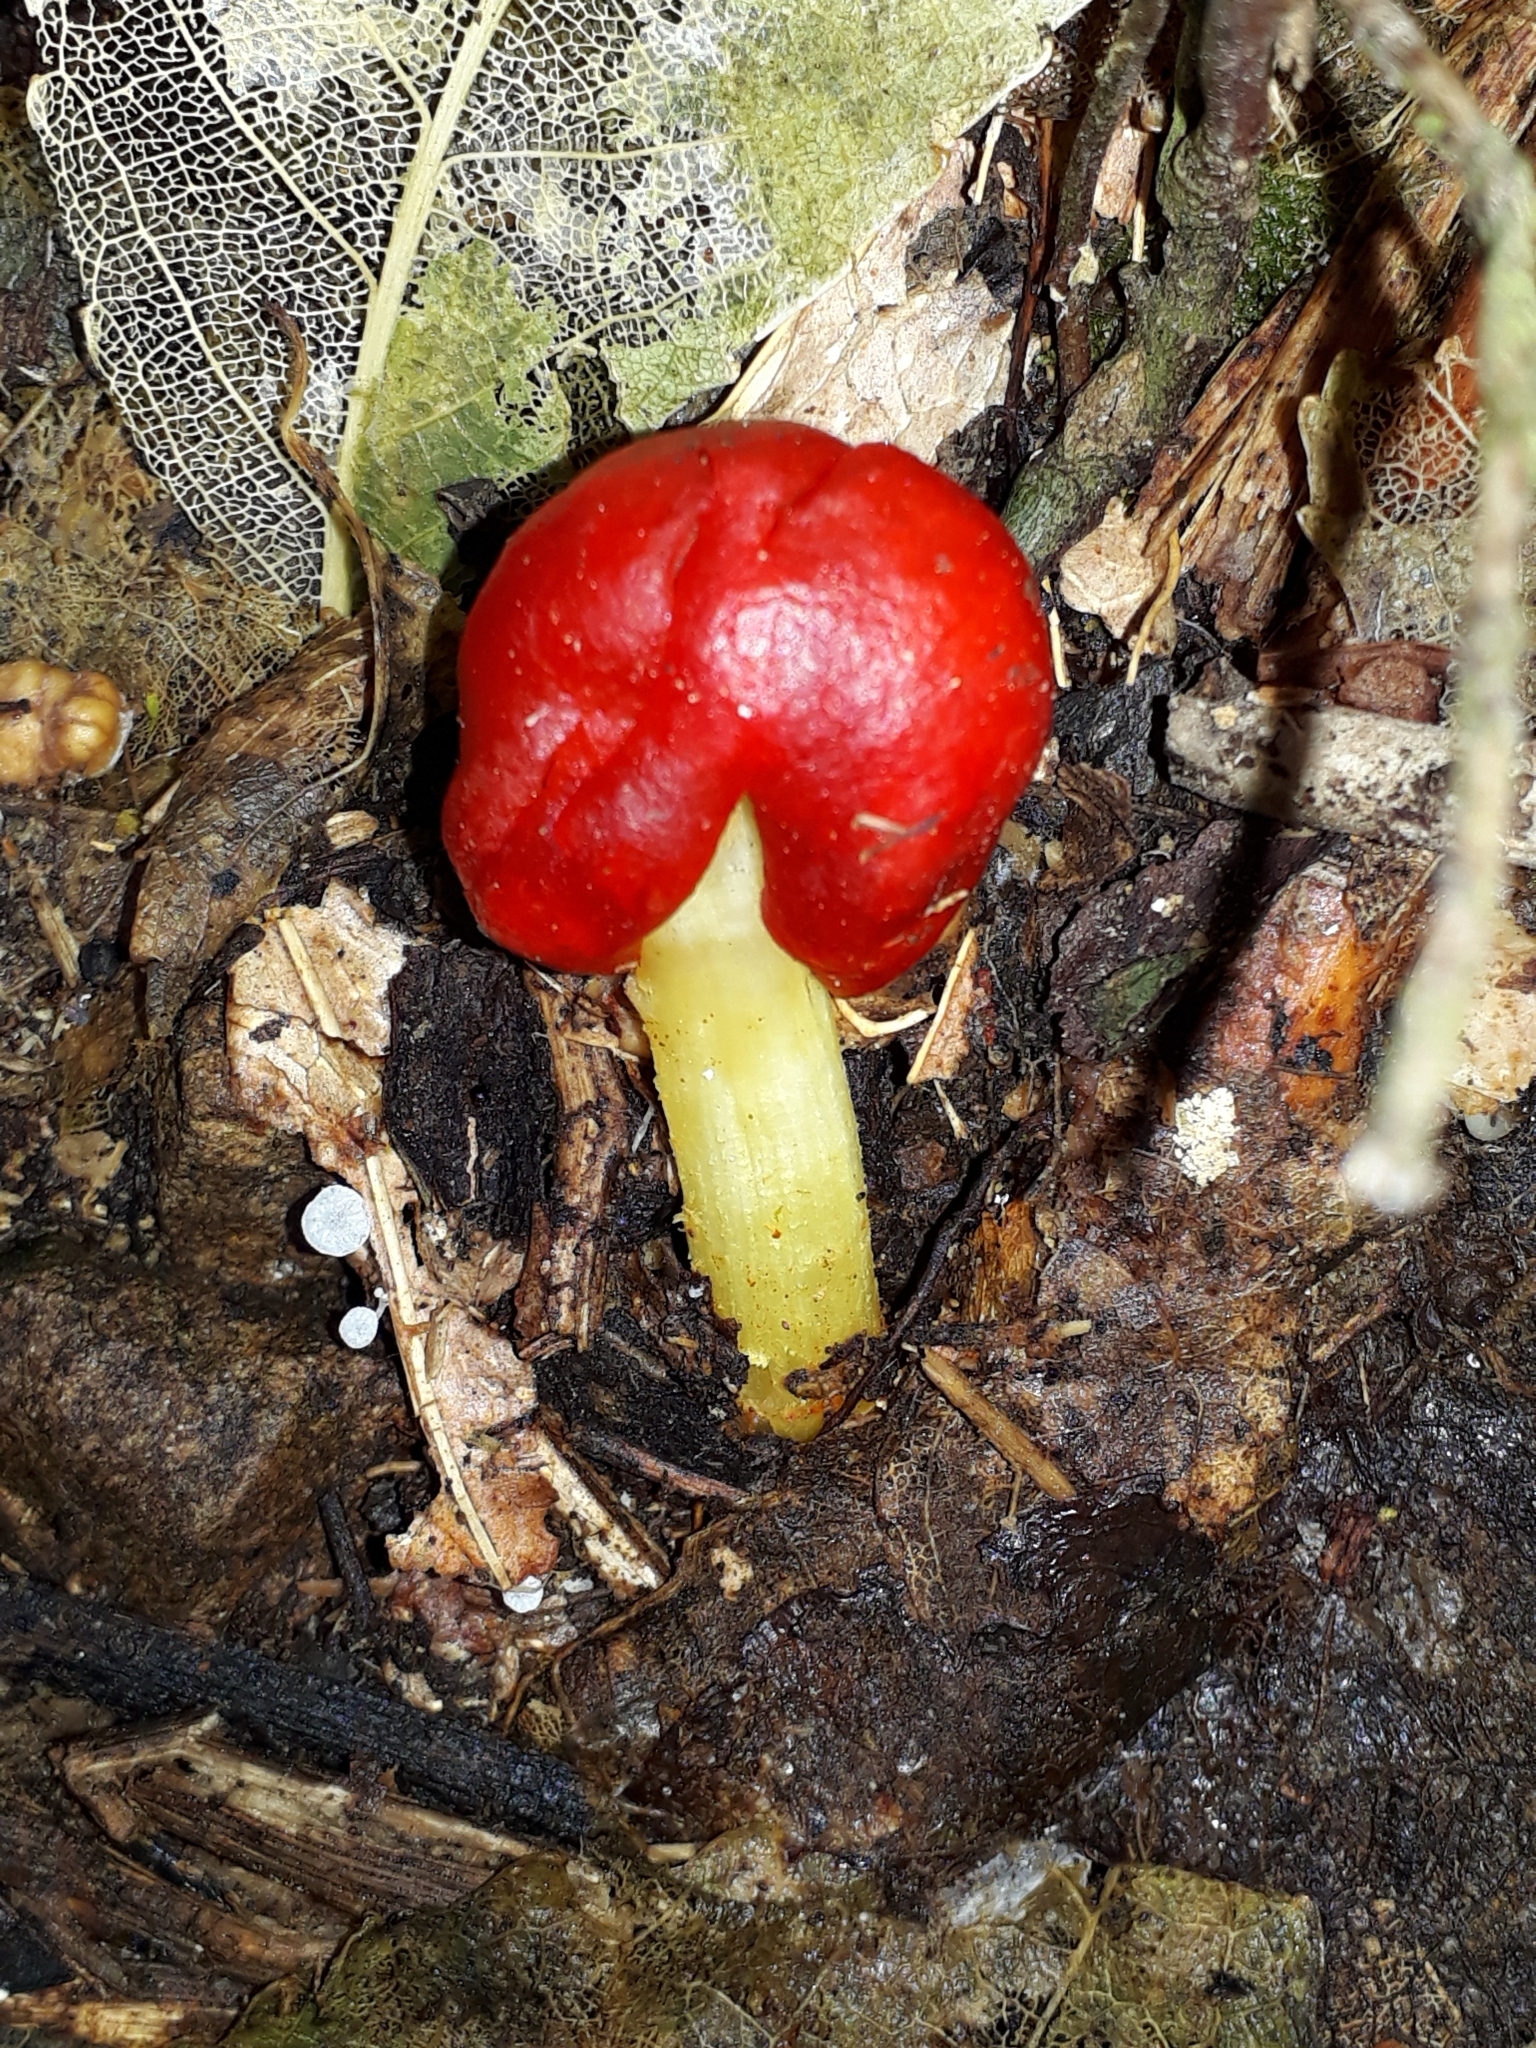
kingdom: Fungi
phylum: Basidiomycota
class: Agaricomycetes
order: Agaricales
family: Strophariaceae
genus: Leratiomyces
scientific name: Leratiomyces erythrocephalus
